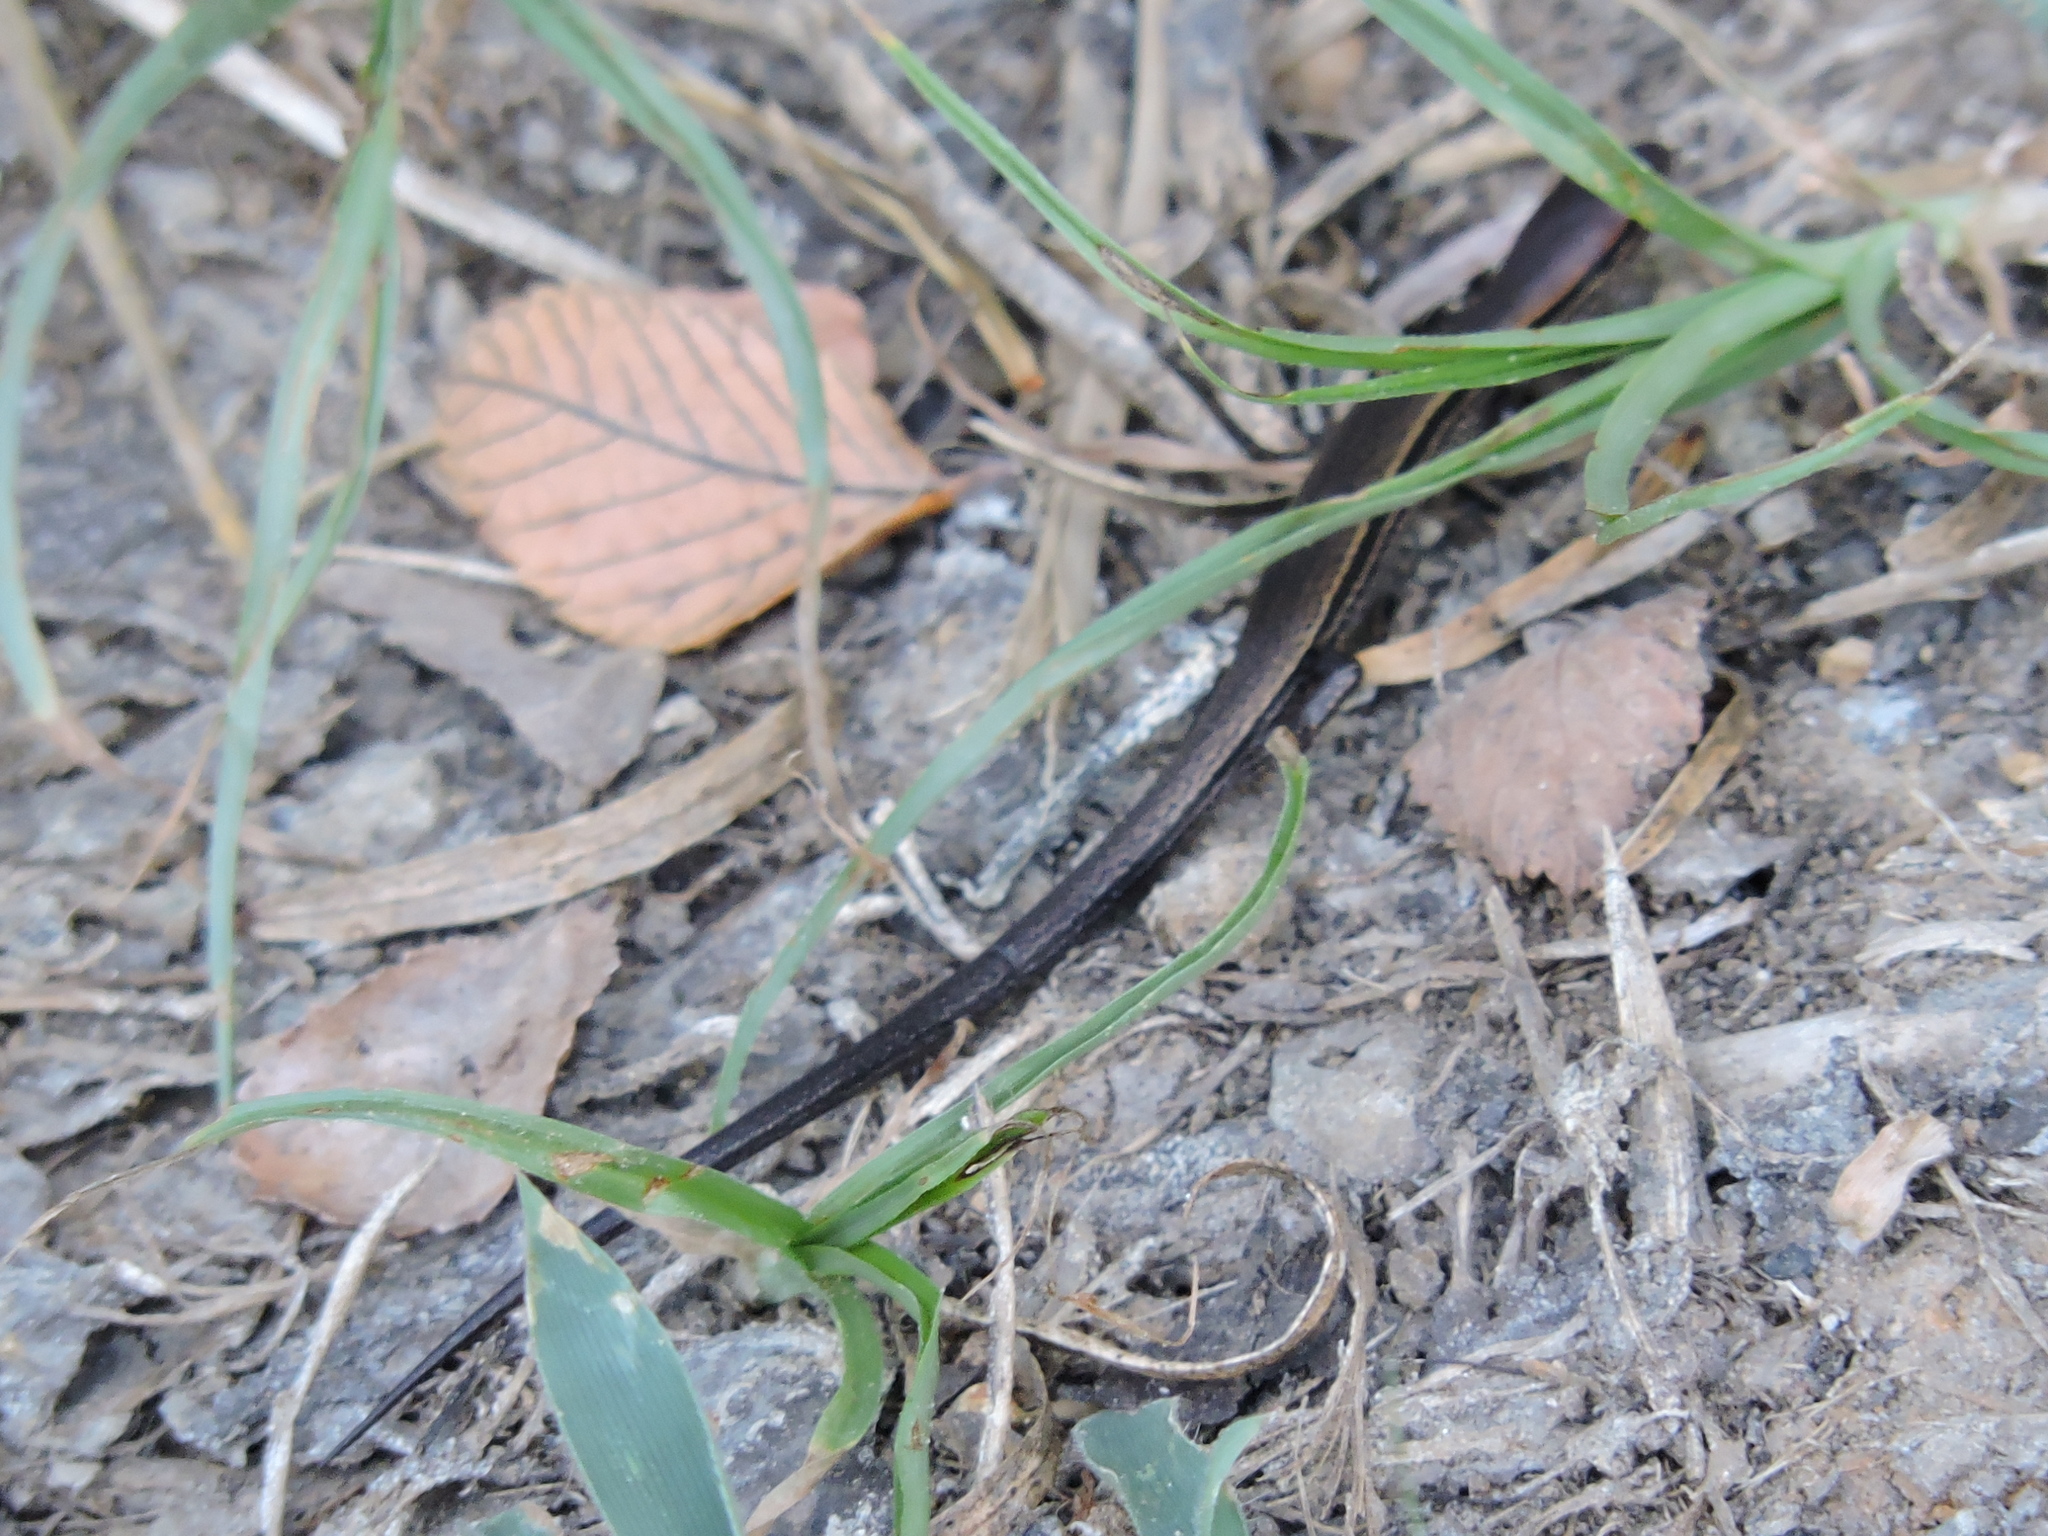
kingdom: Animalia
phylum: Chordata
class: Squamata
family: Scincidae
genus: Scincella
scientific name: Scincella lateralis
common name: Ground skink
